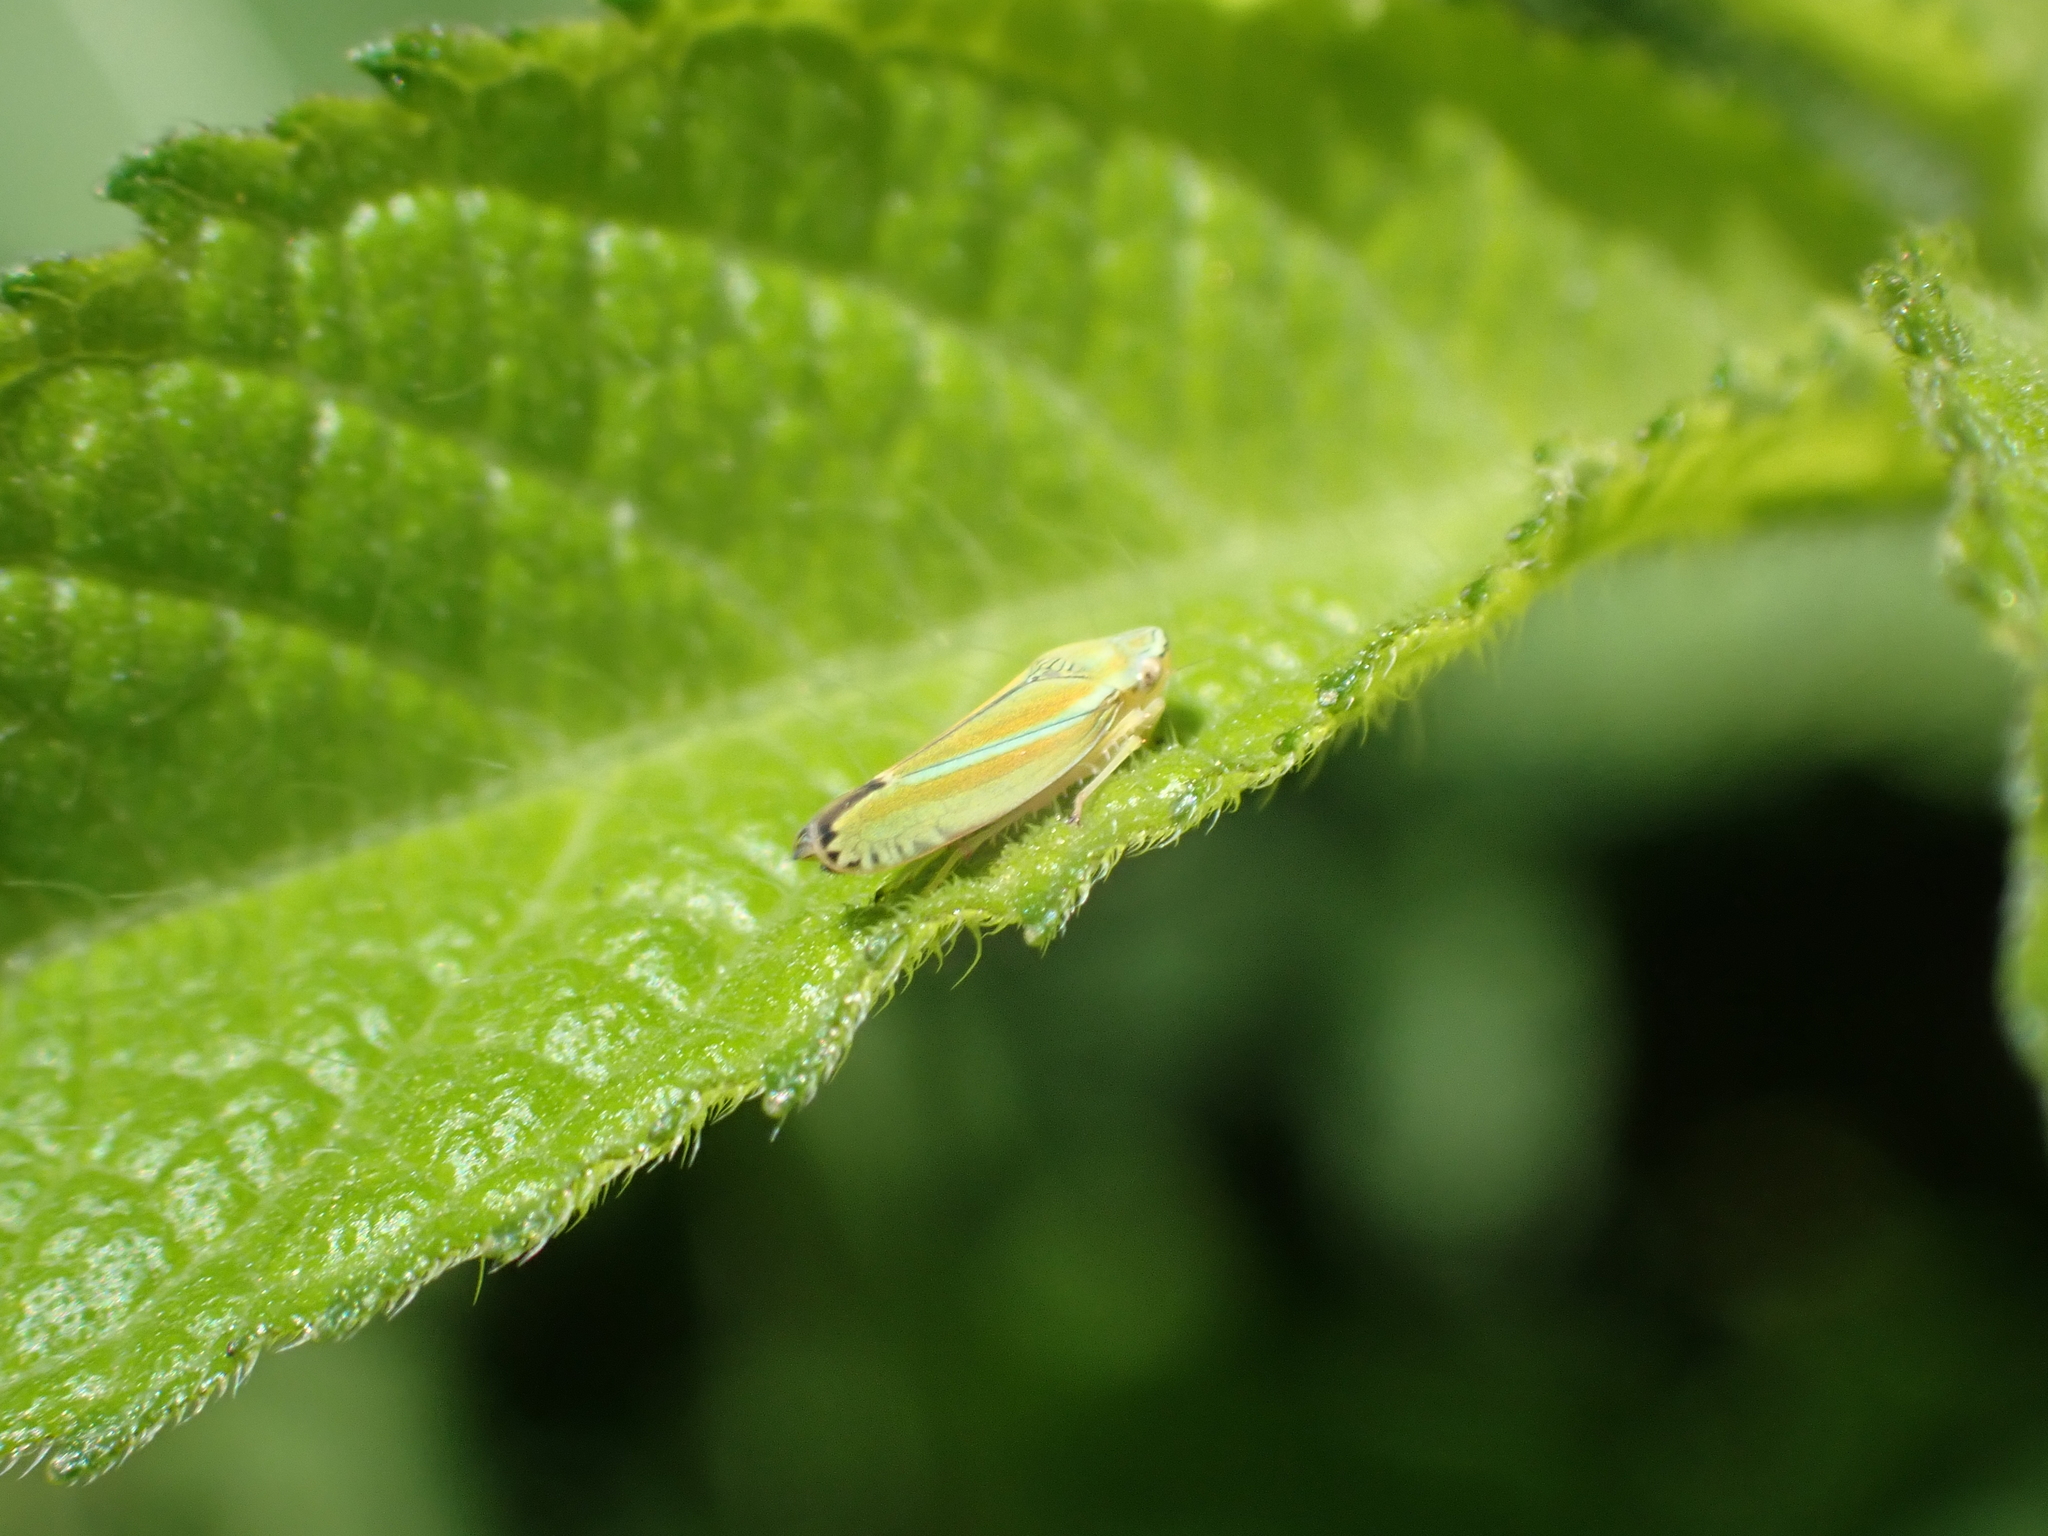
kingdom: Animalia
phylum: Arthropoda
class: Insecta
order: Hemiptera
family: Cicadellidae
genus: Graphocephala
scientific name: Graphocephala versuta
